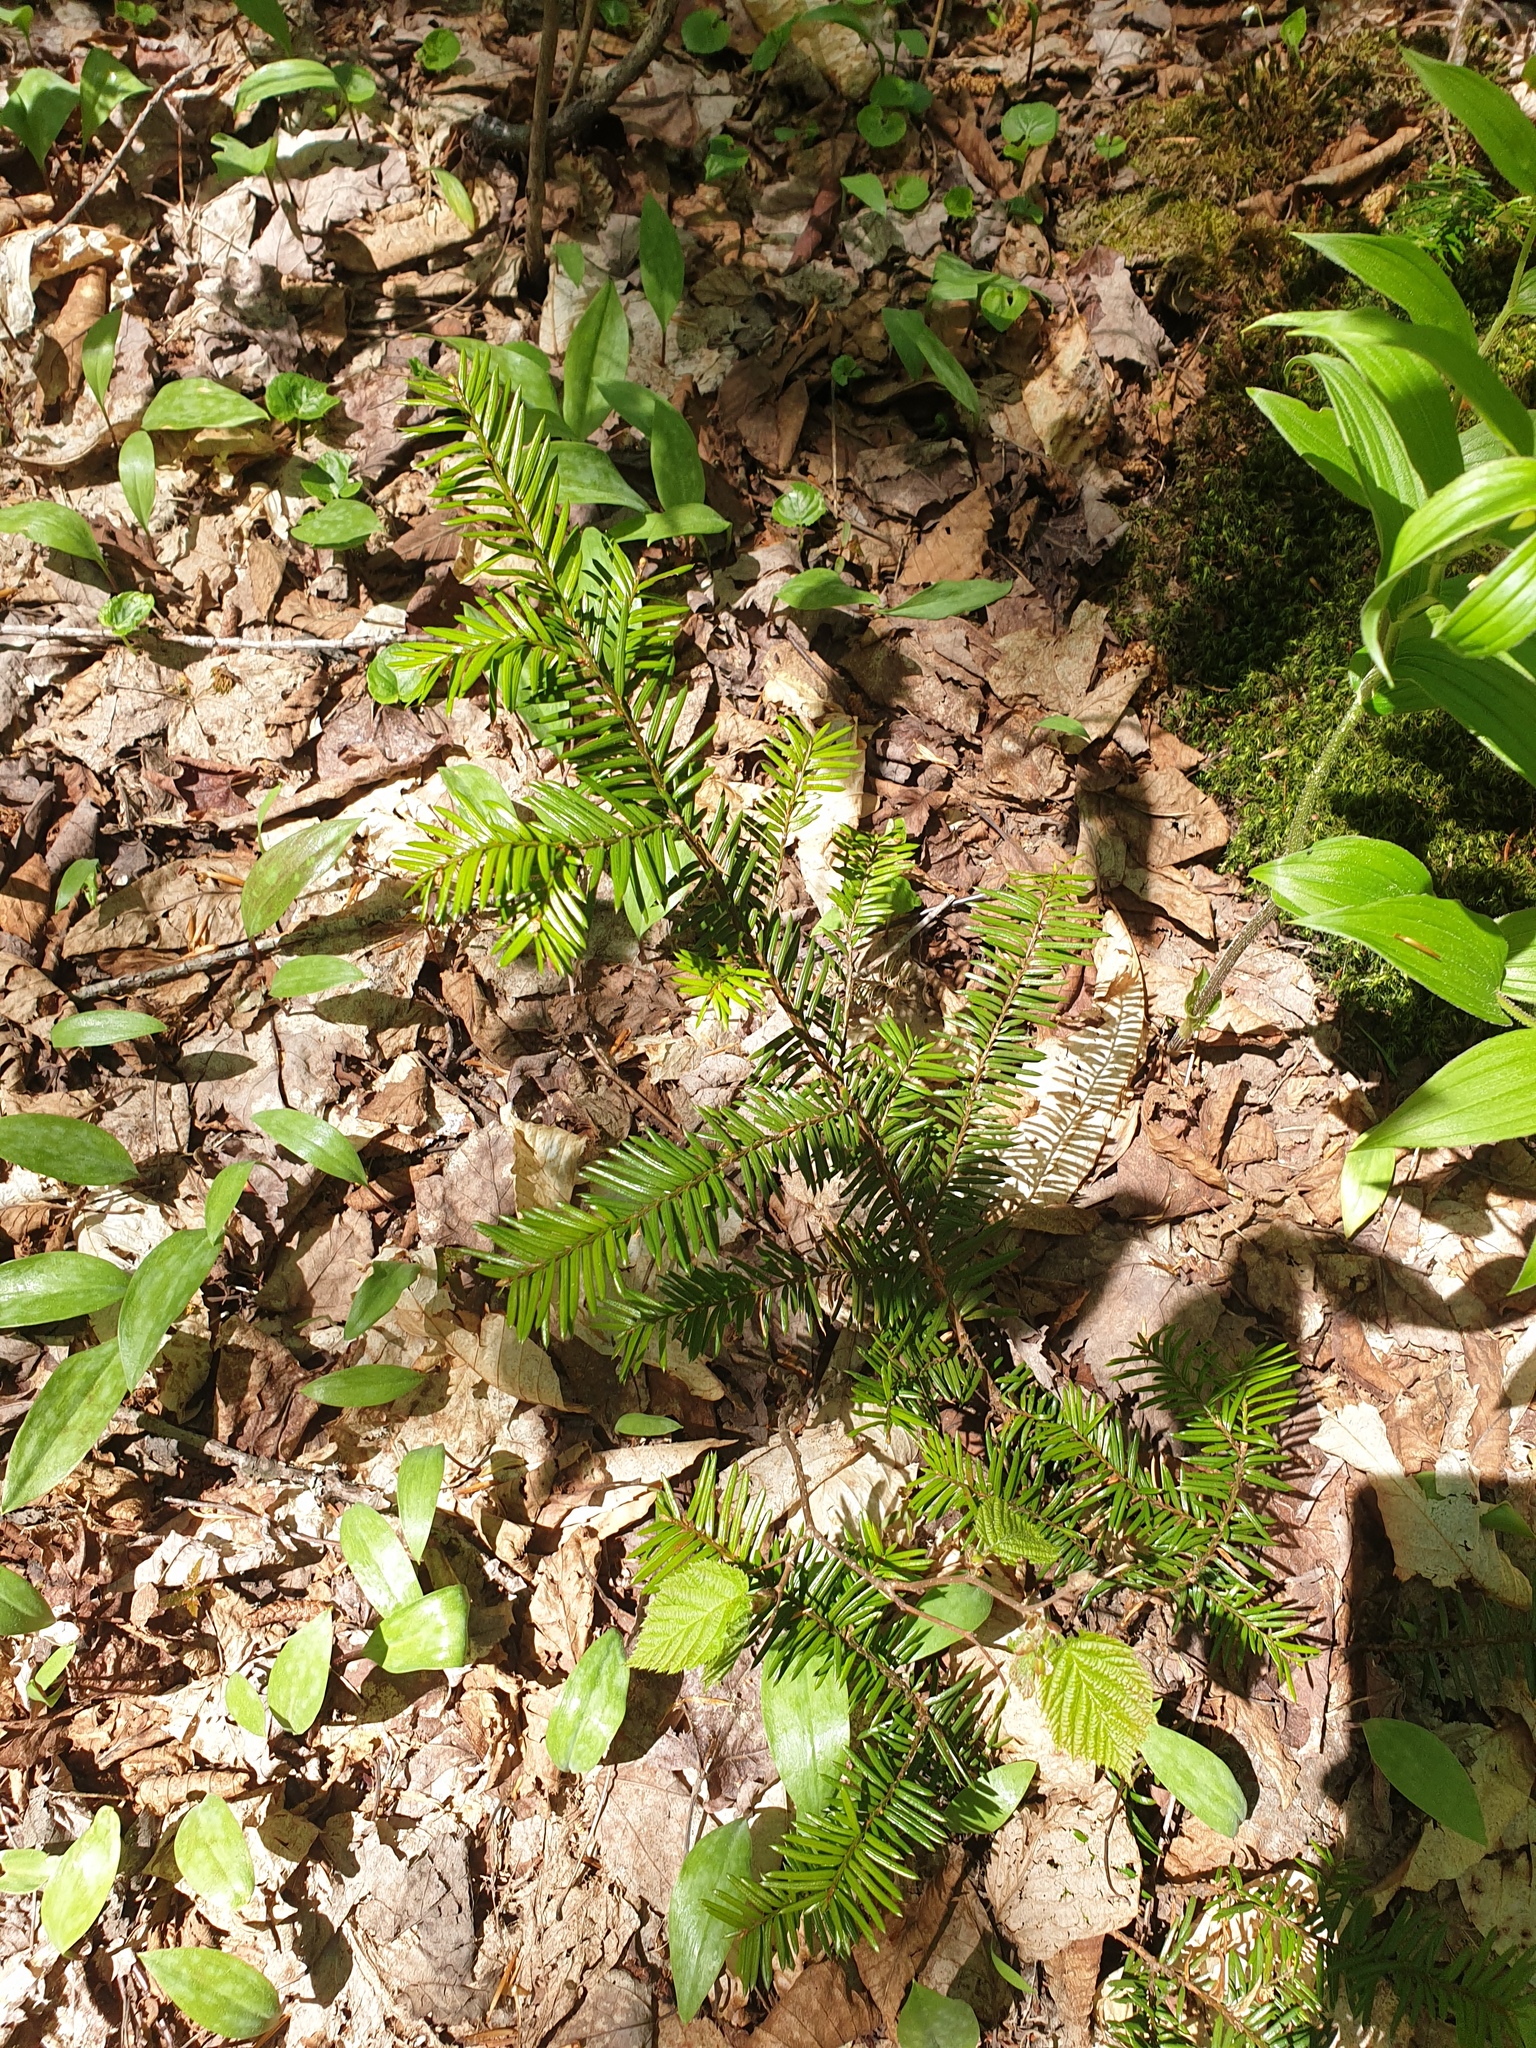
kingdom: Plantae
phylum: Tracheophyta
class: Pinopsida
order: Pinales
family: Taxaceae
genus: Taxus
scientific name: Taxus canadensis
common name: American yew
